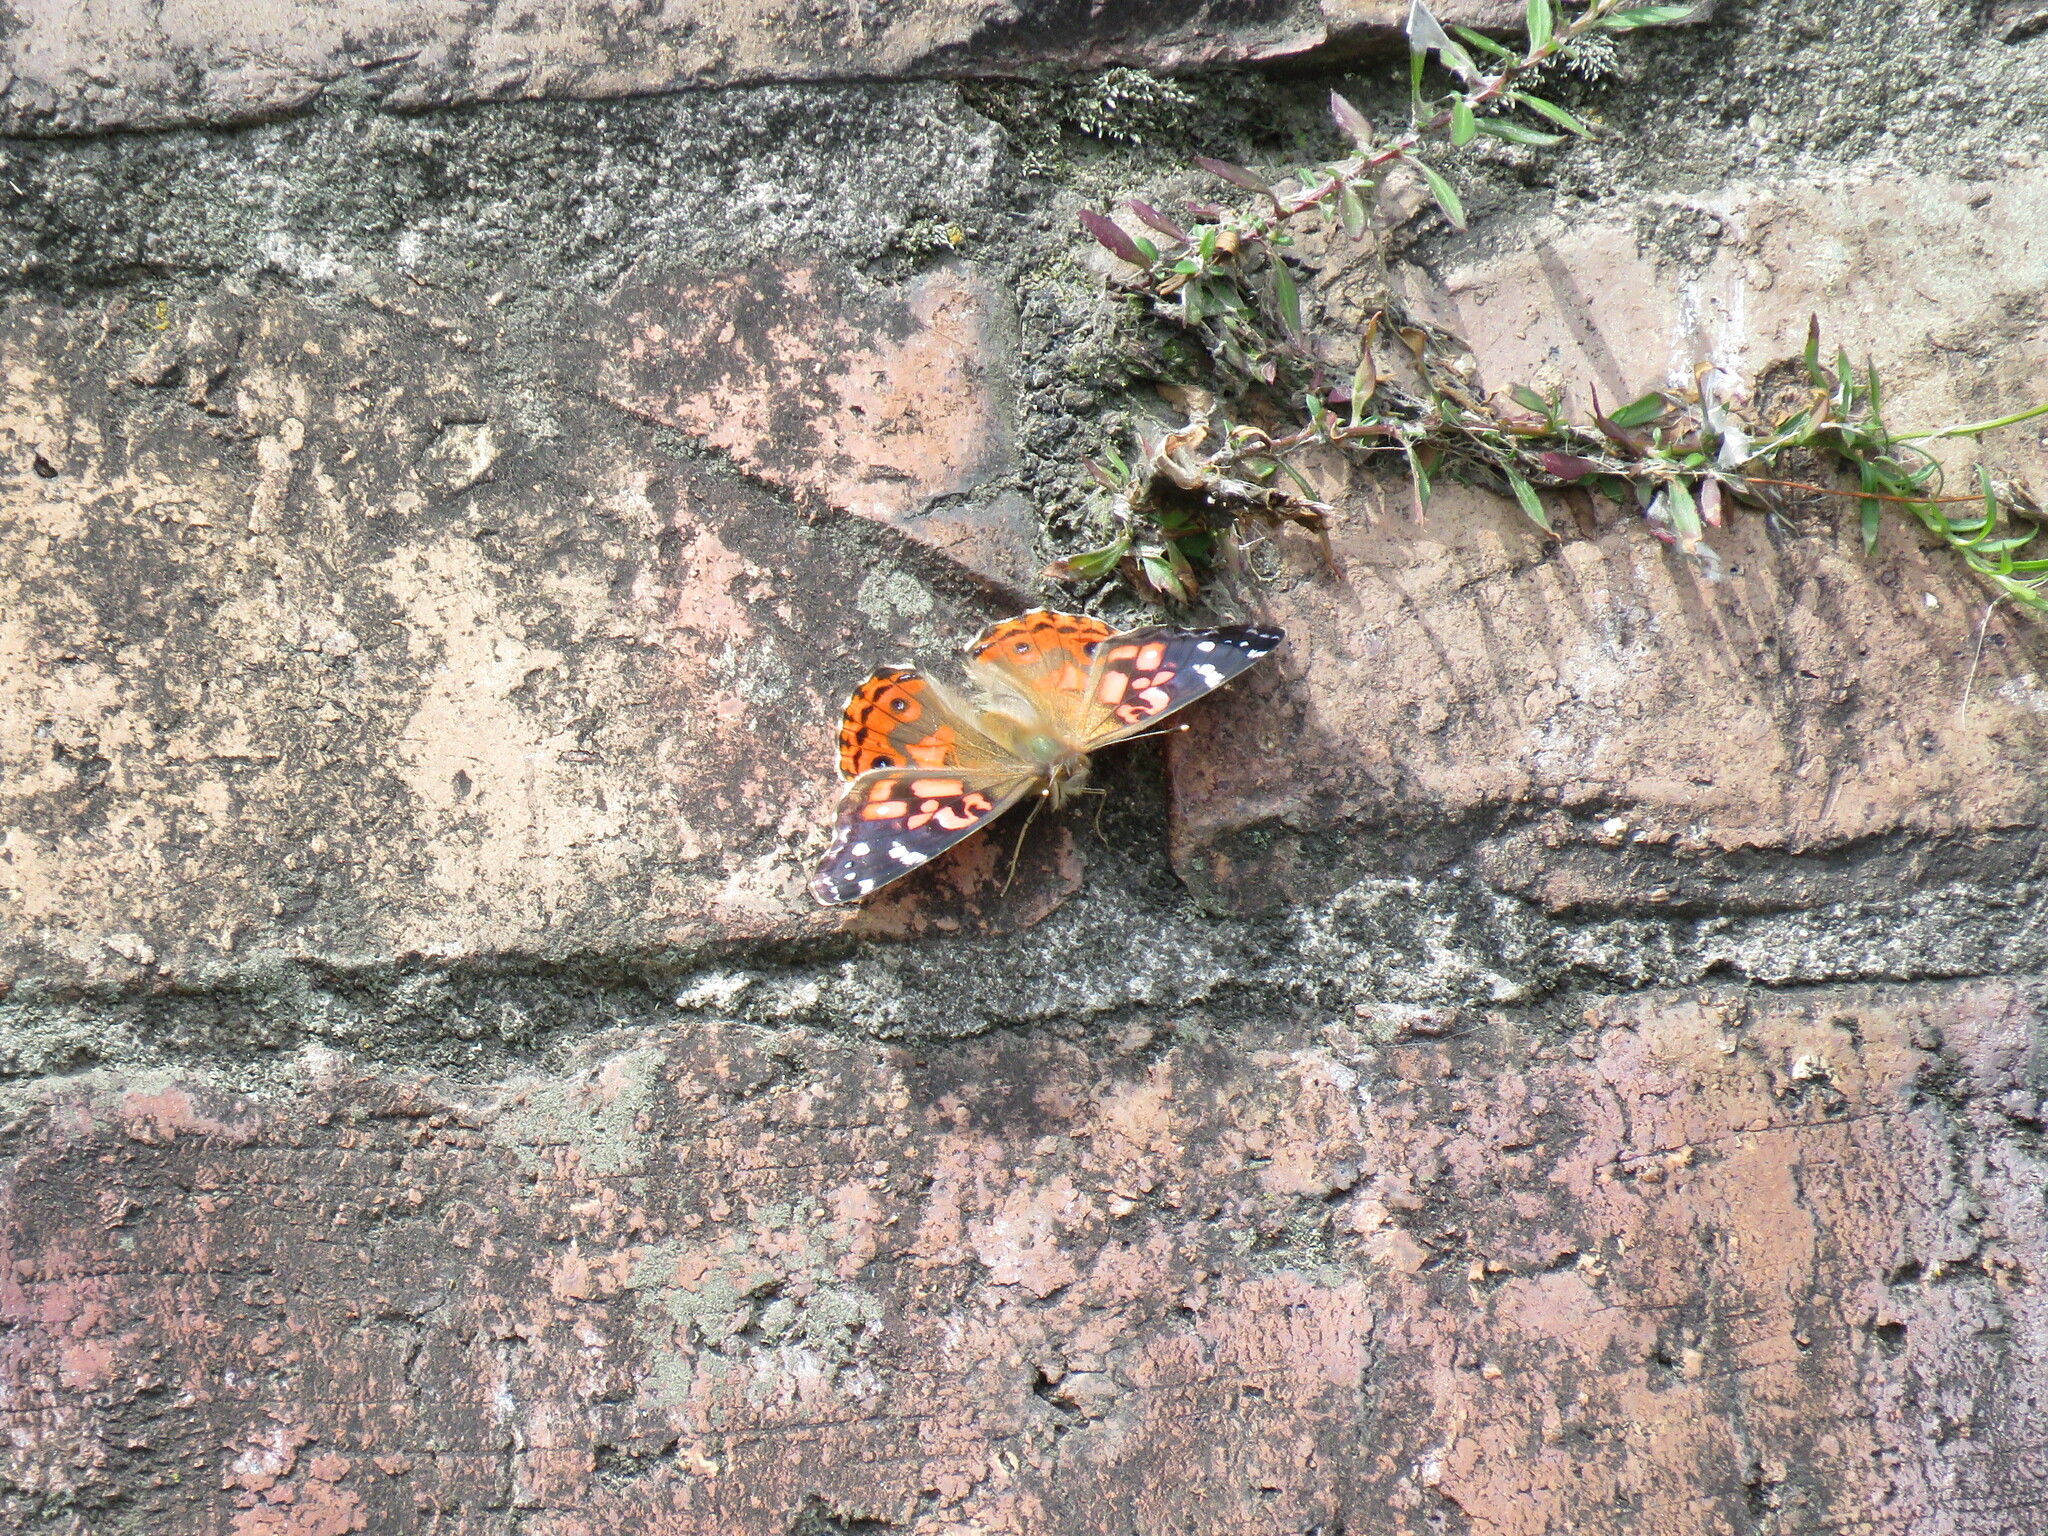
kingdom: Animalia
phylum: Arthropoda
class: Insecta
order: Lepidoptera
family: Nymphalidae
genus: Vanessa
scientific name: Vanessa braziliensis
